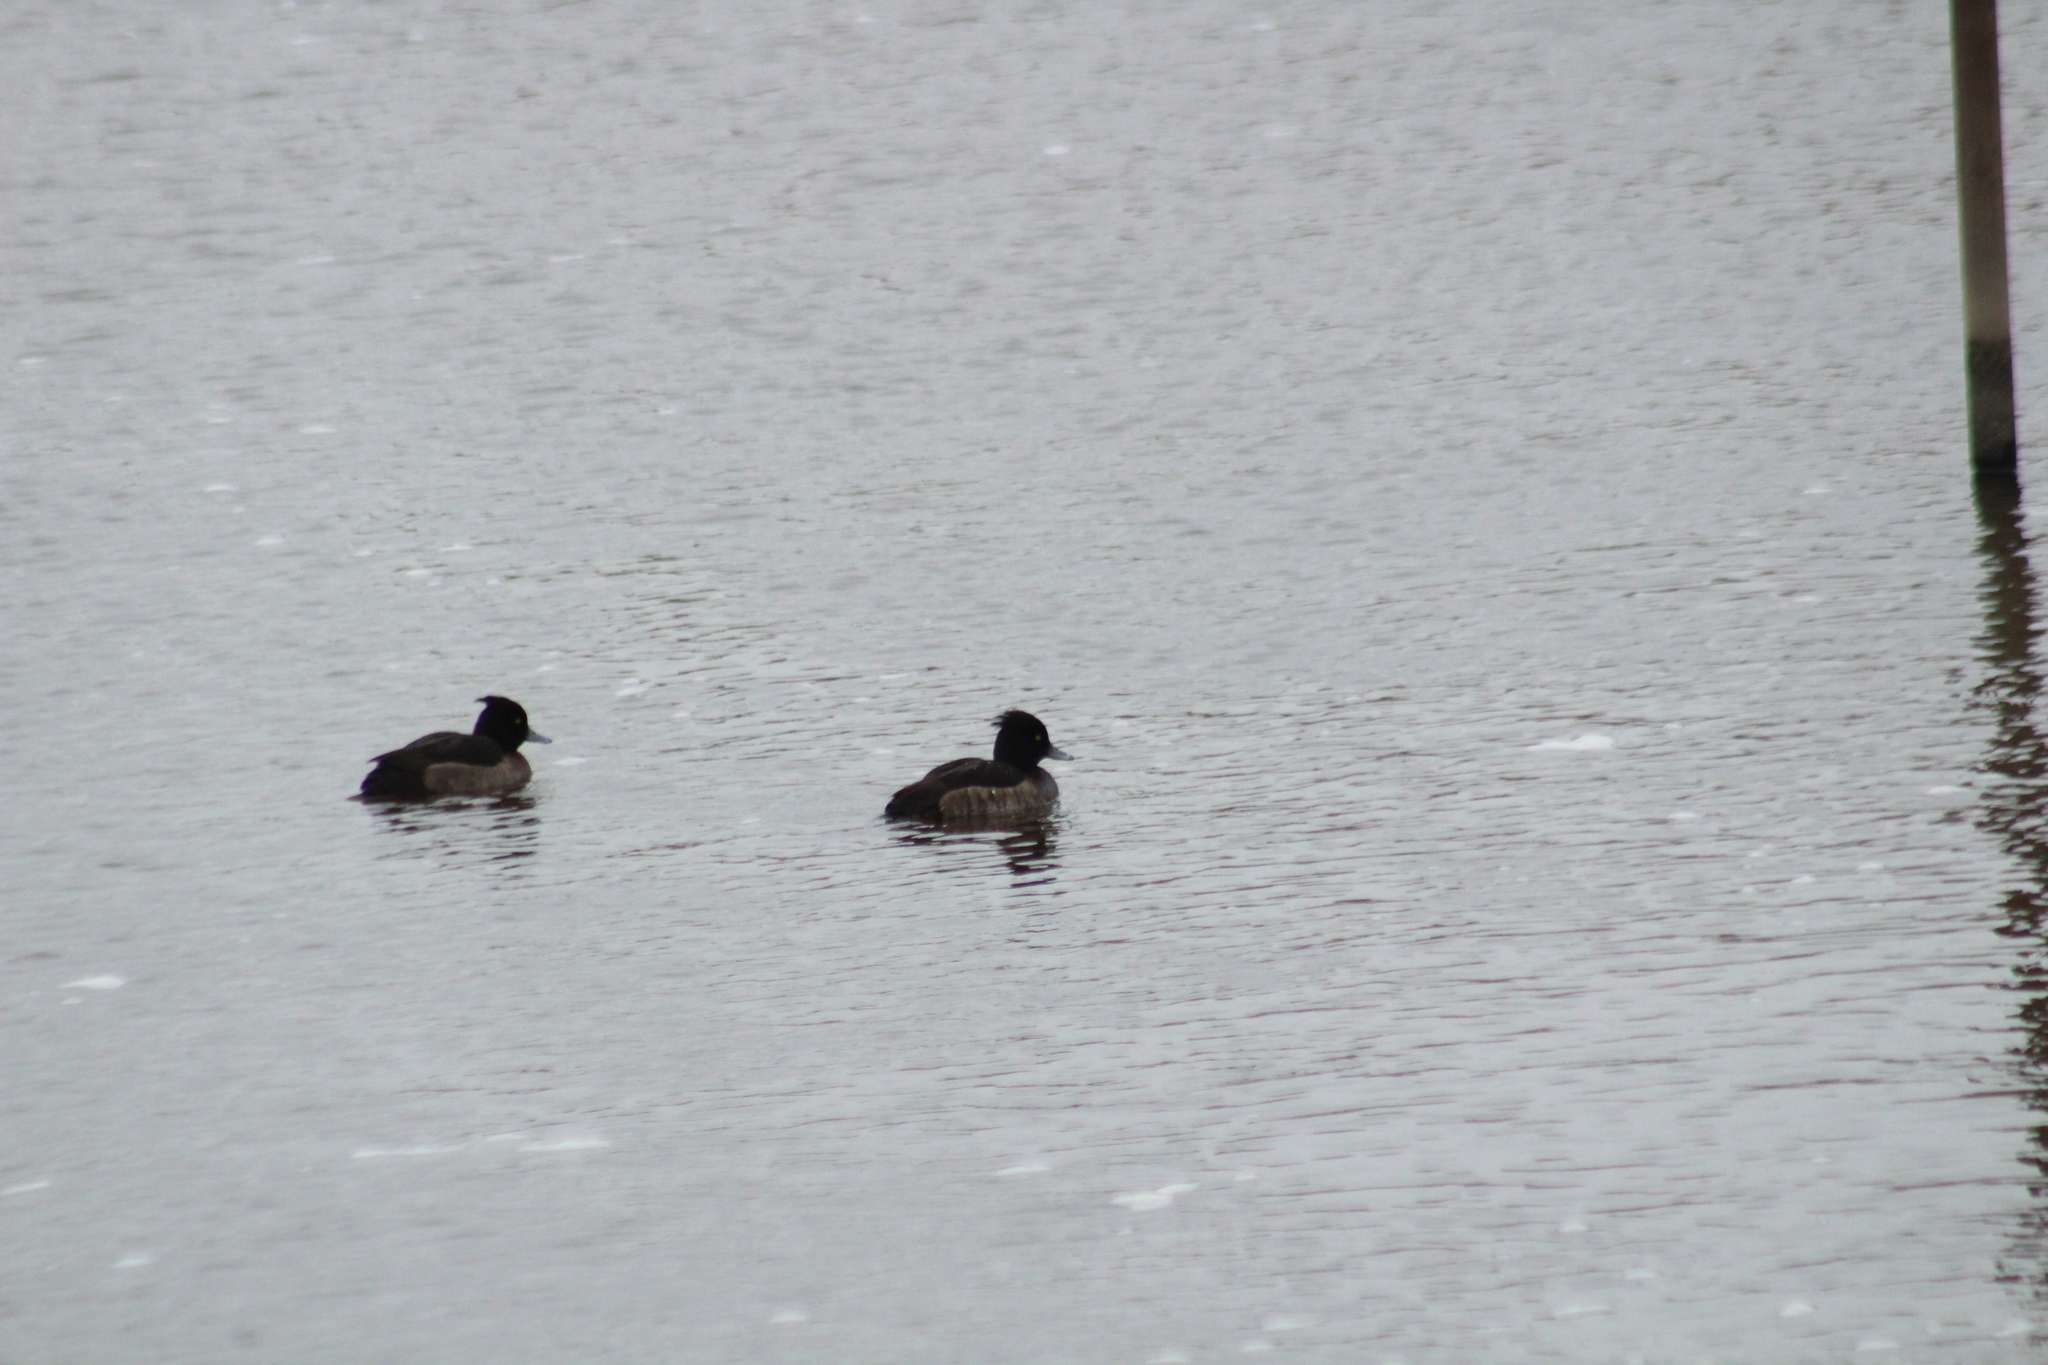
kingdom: Animalia
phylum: Chordata
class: Aves
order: Anseriformes
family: Anatidae
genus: Aythya
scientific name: Aythya fuligula
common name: Tufted duck
